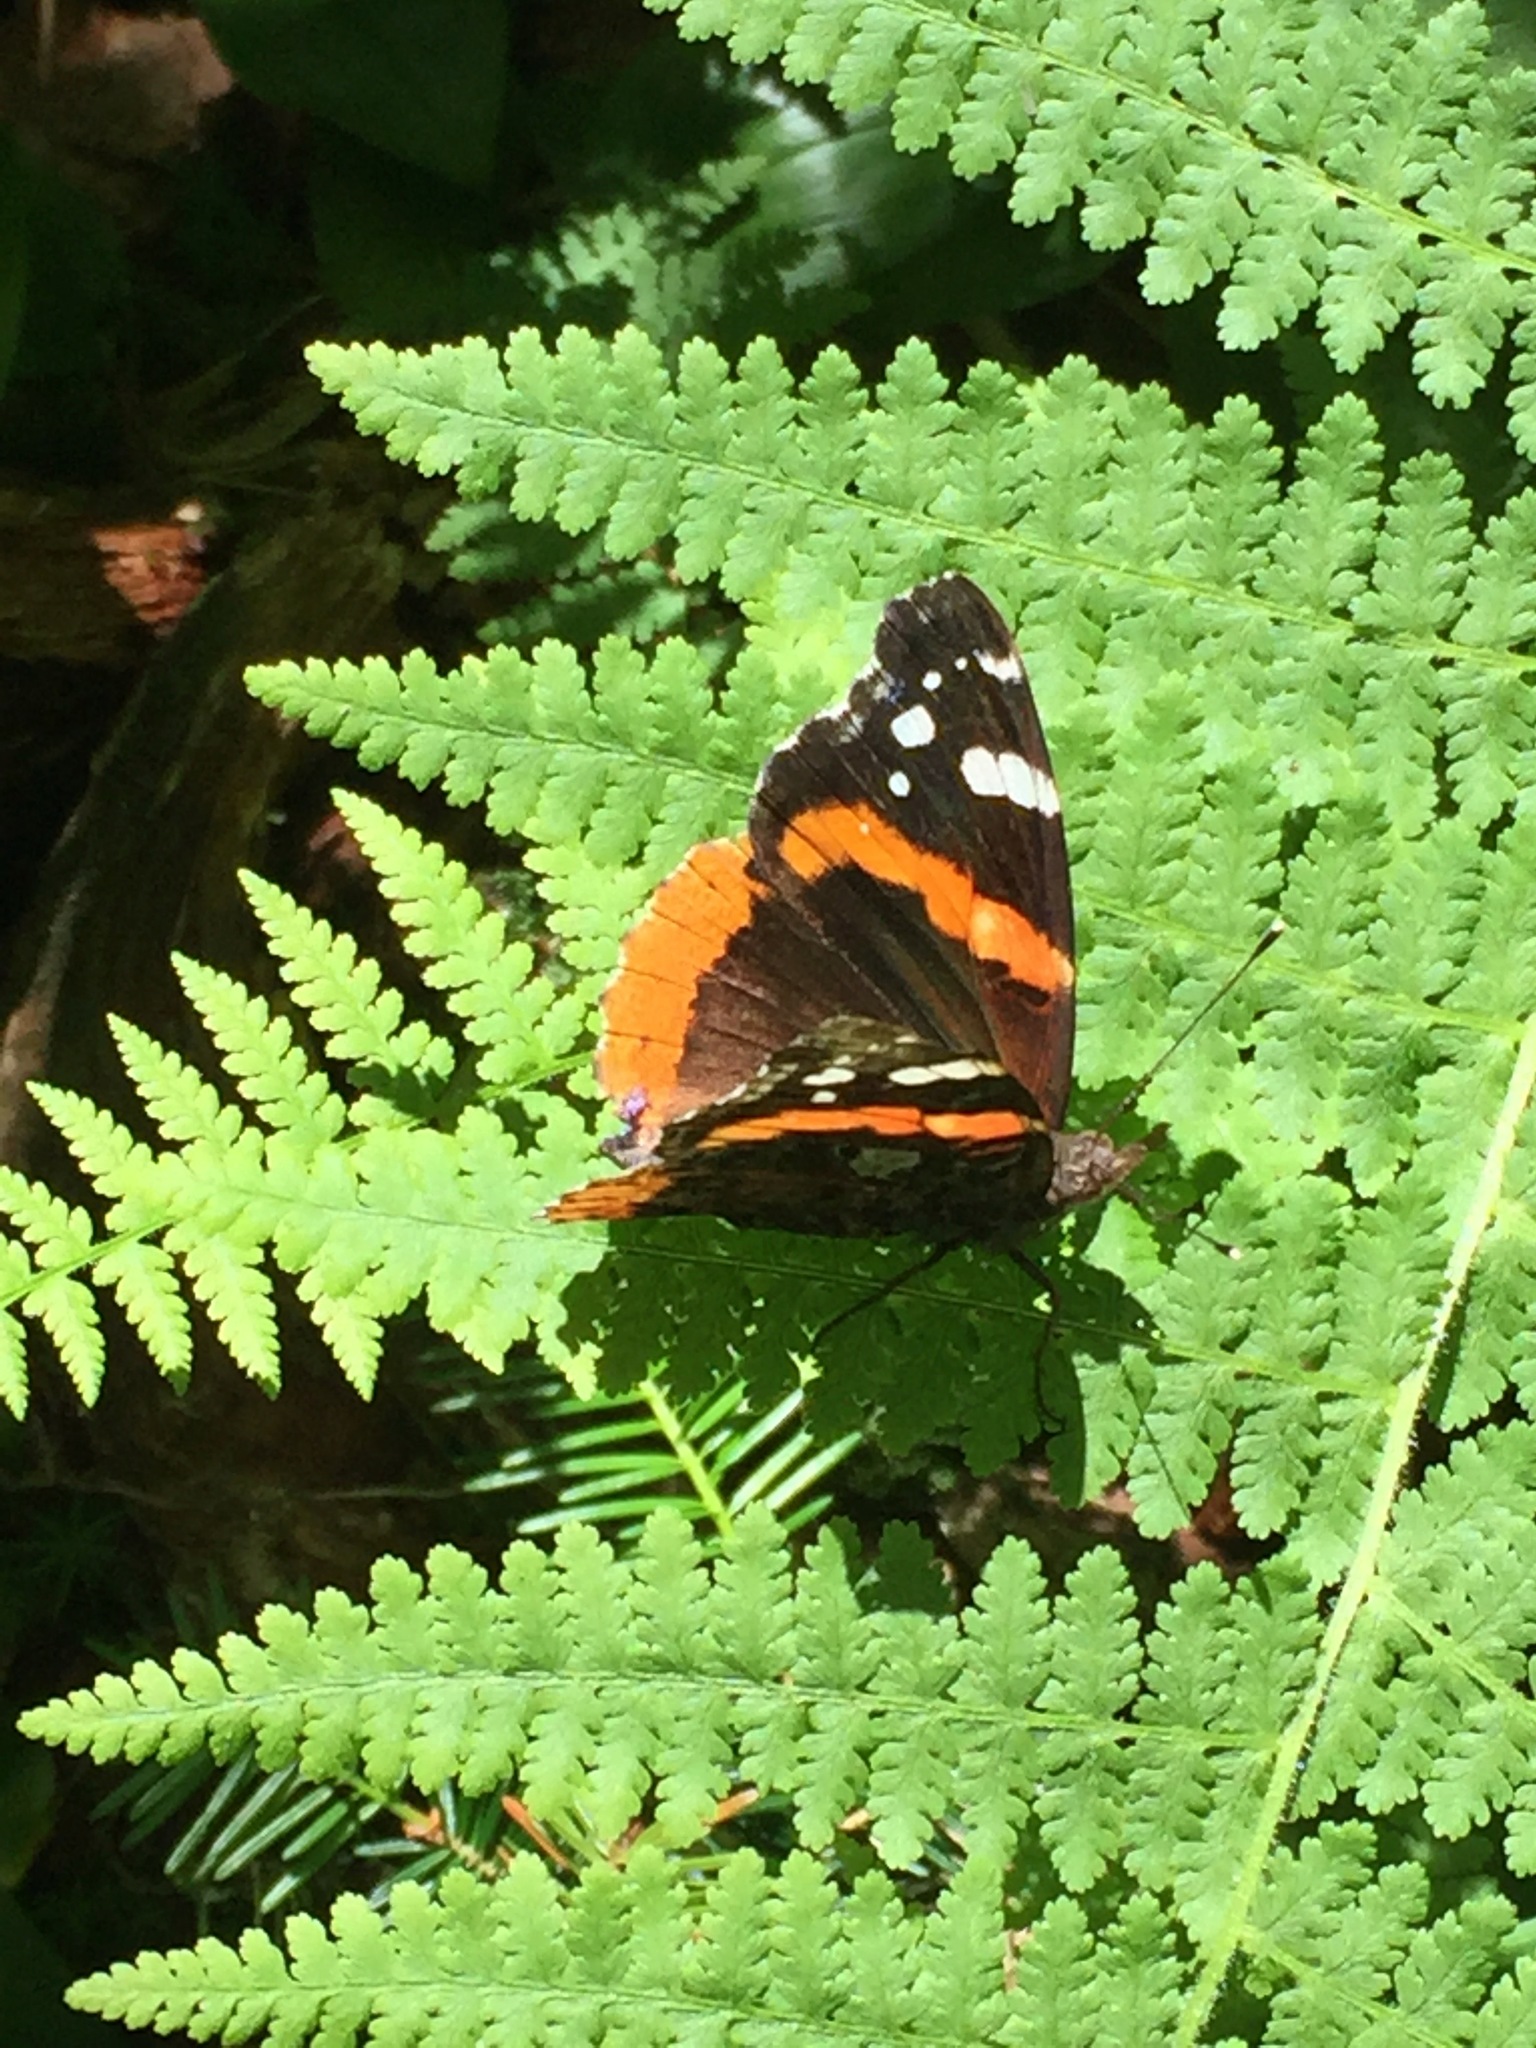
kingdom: Animalia
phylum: Arthropoda
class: Insecta
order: Lepidoptera
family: Nymphalidae
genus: Vanessa
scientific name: Vanessa atalanta
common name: Red admiral
